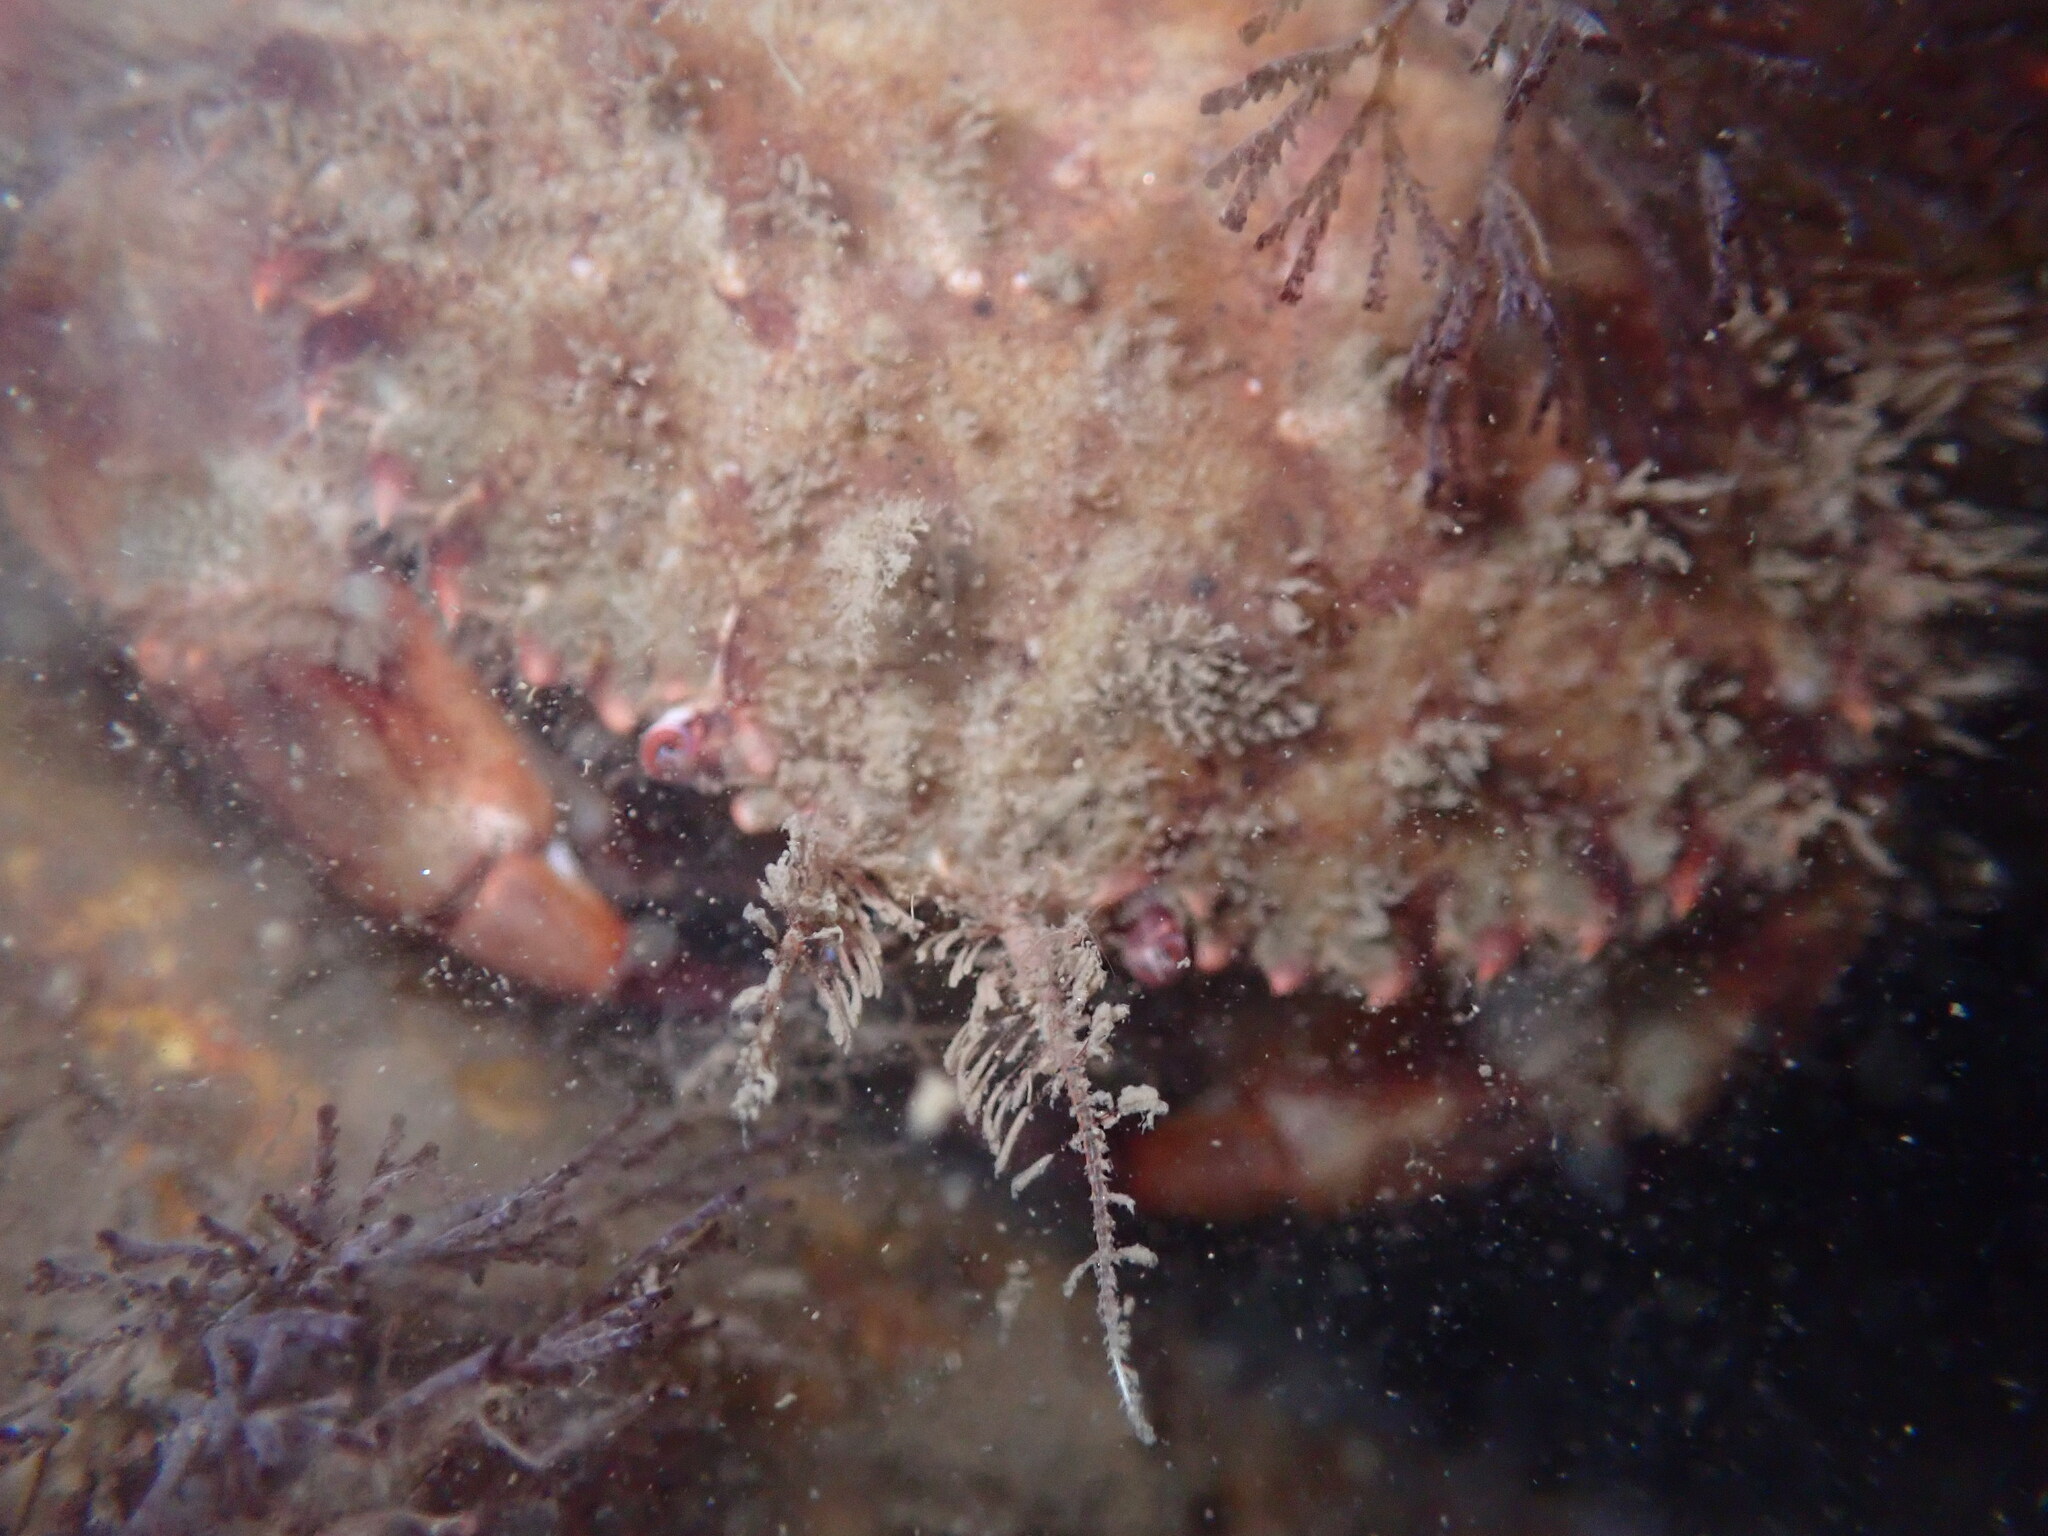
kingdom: Animalia
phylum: Arthropoda
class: Malacostraca
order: Decapoda
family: Cancridae
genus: Romaleon
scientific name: Romaleon antennarium
